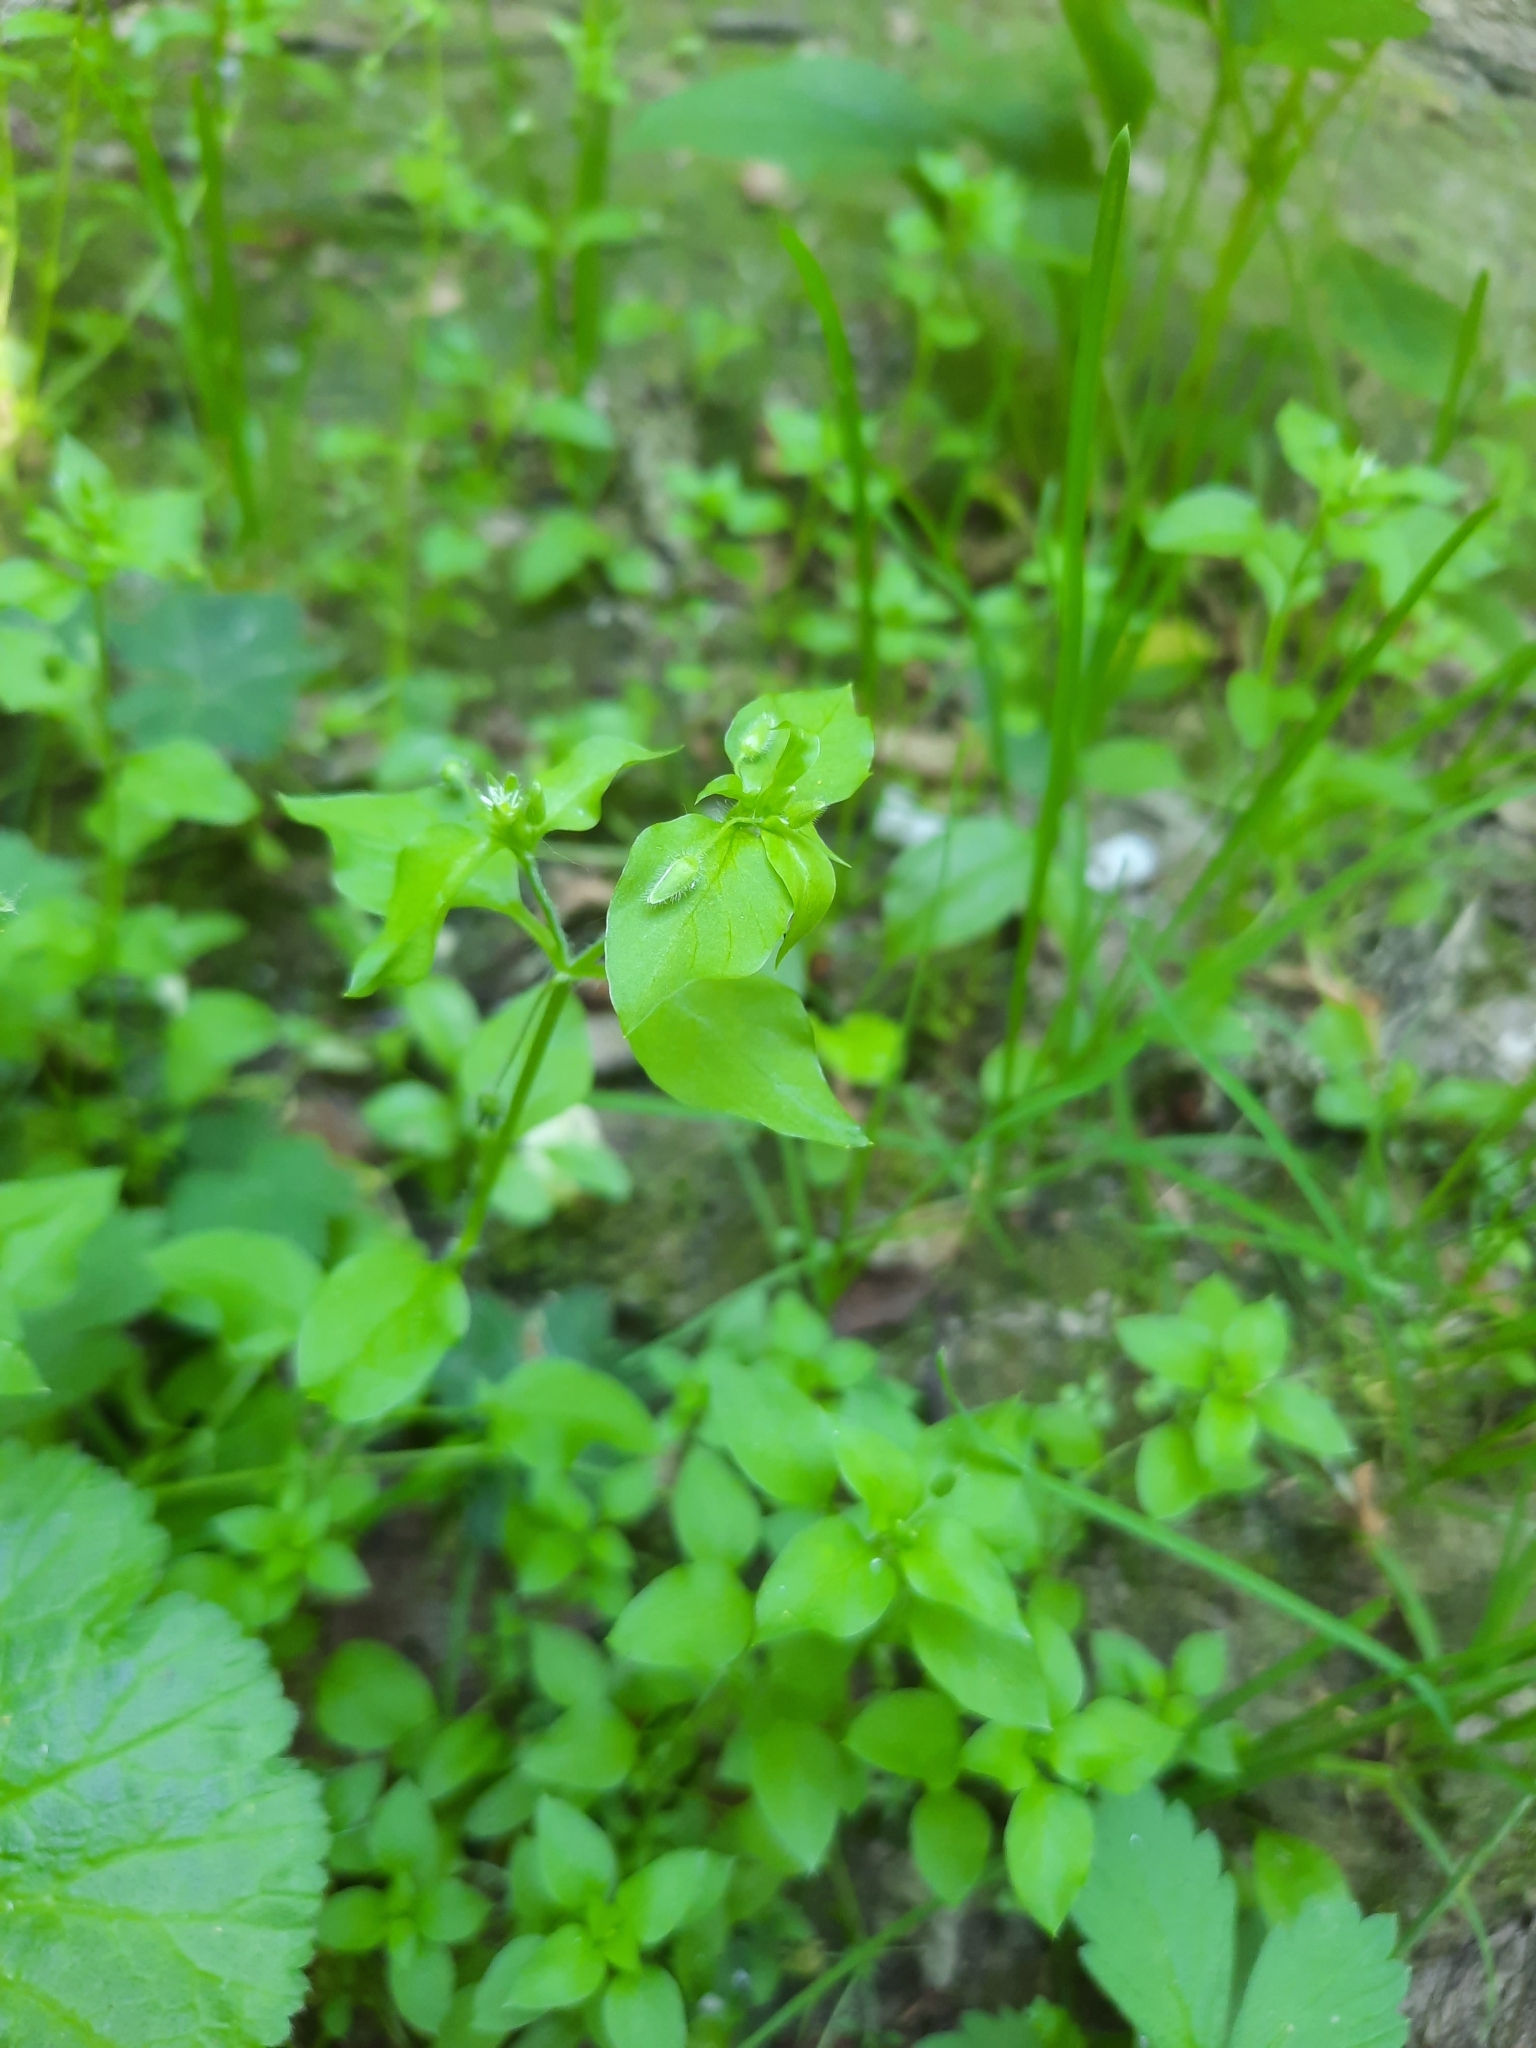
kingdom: Plantae
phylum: Tracheophyta
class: Magnoliopsida
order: Caryophyllales
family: Caryophyllaceae
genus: Stellaria
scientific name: Stellaria media
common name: Common chickweed
